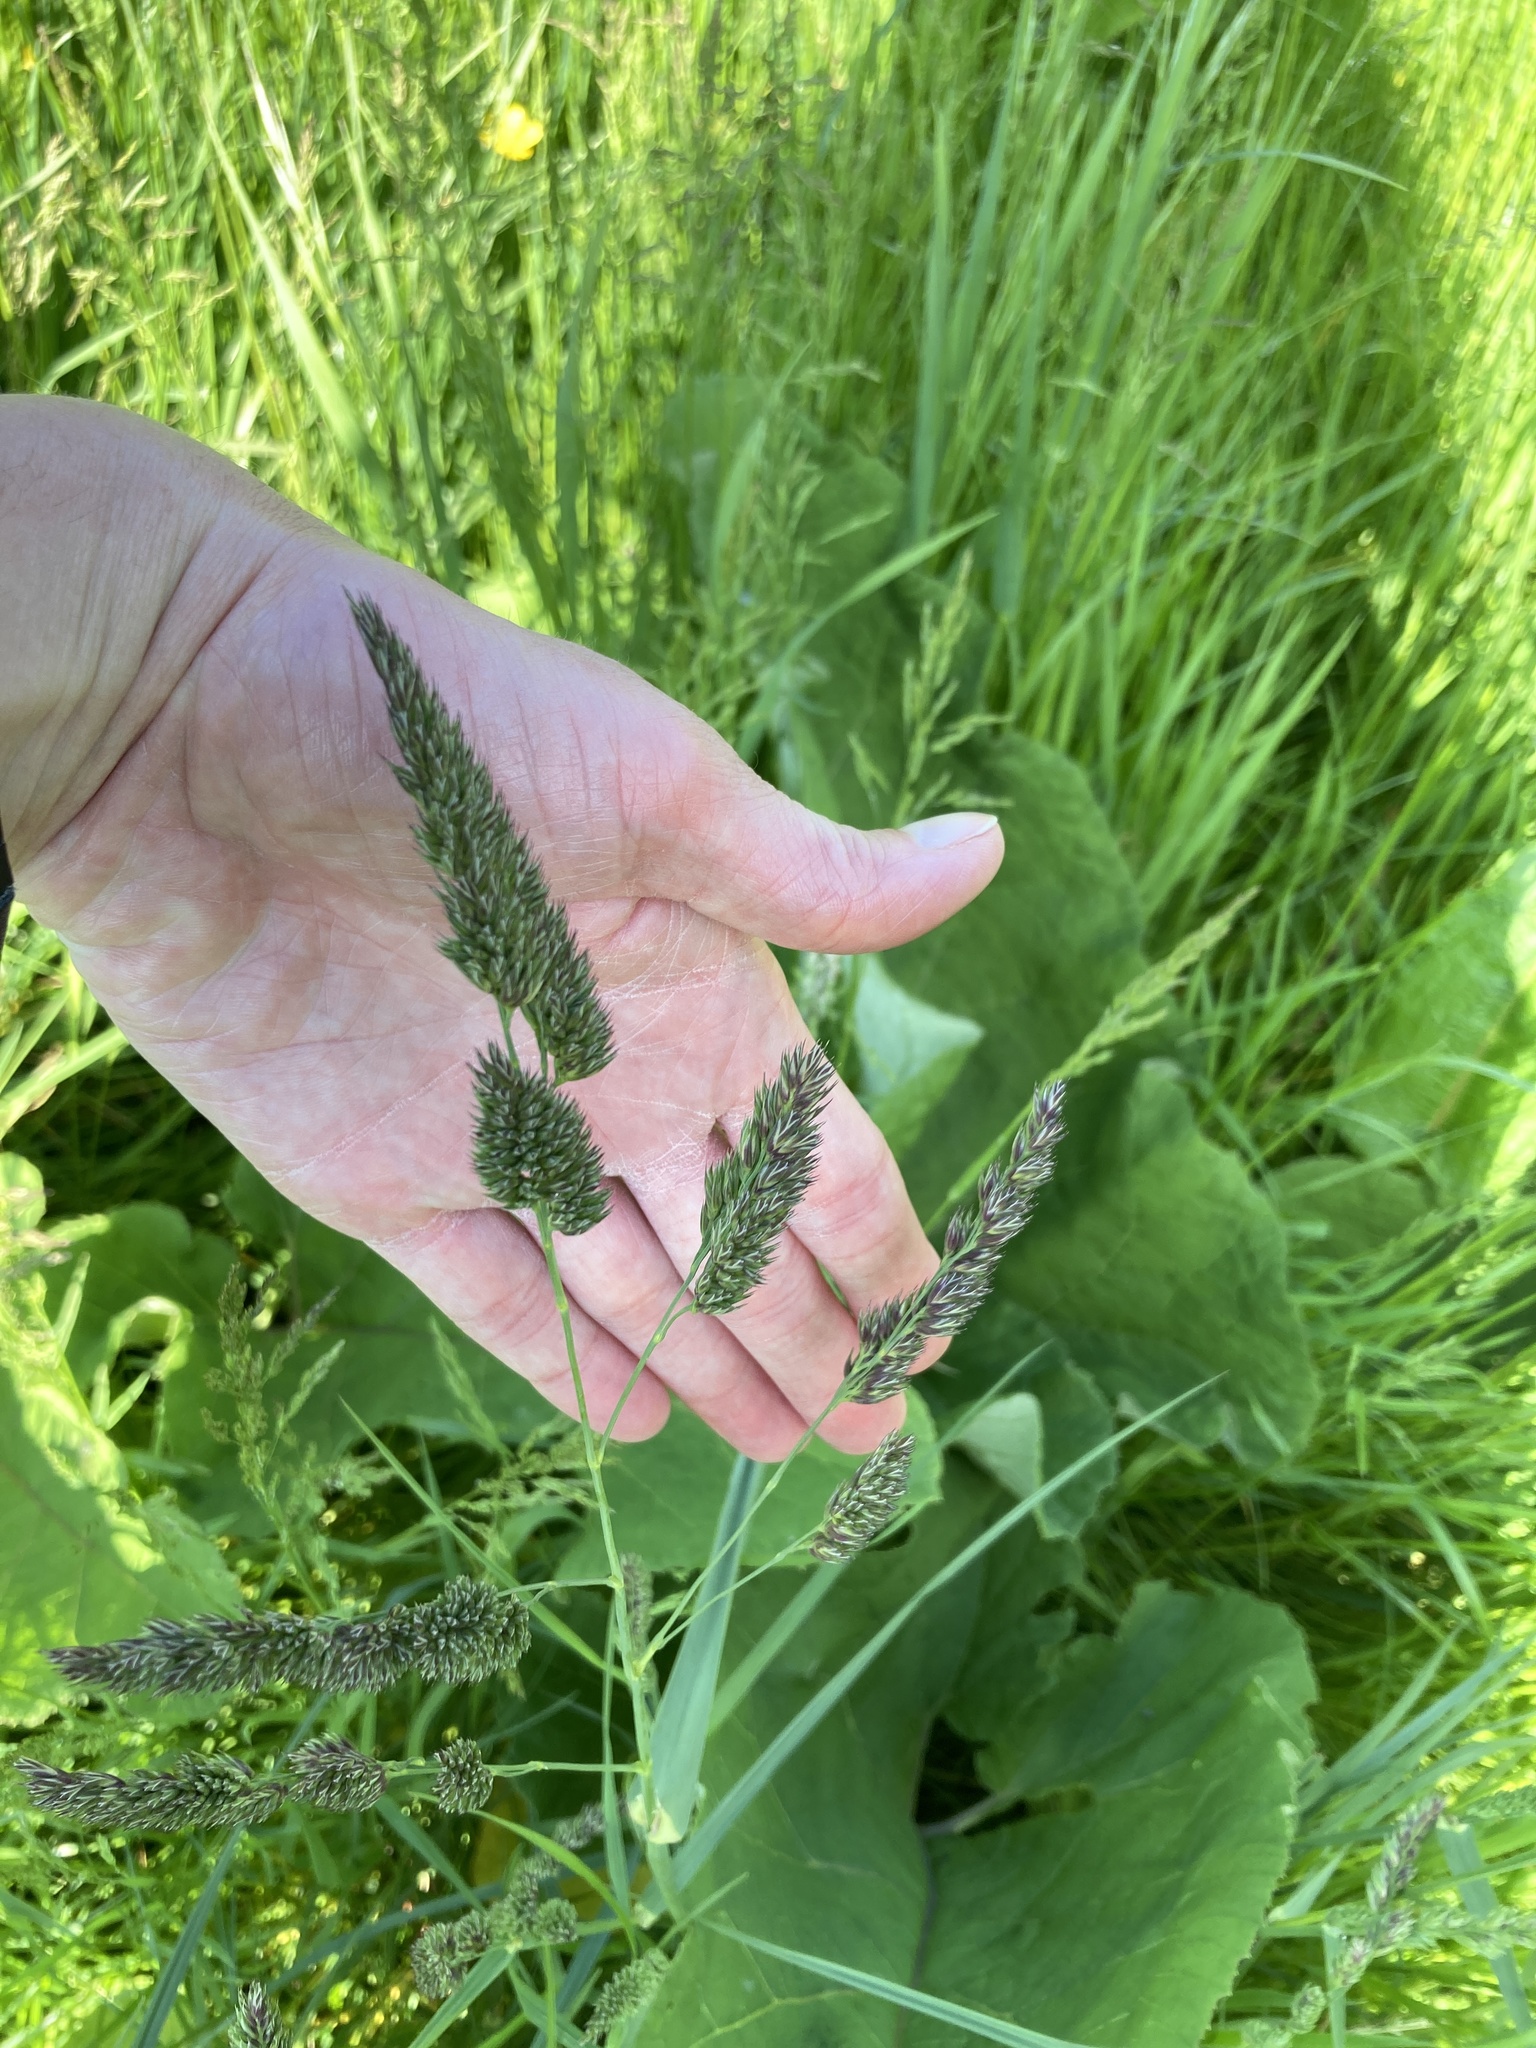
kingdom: Plantae
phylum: Tracheophyta
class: Liliopsida
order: Poales
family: Poaceae
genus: Dactylis
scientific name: Dactylis glomerata
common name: Orchardgrass
